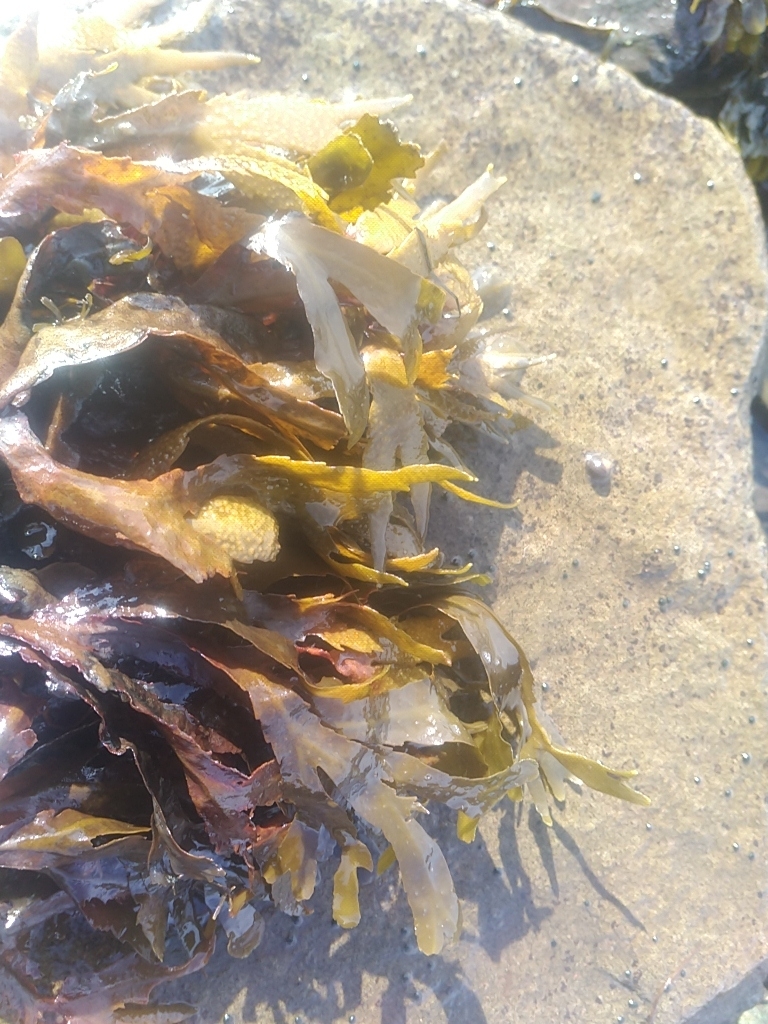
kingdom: Chromista
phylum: Ochrophyta
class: Phaeophyceae
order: Fucales
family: Fucaceae
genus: Fucus
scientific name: Fucus serratus
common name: Toothed wrack
